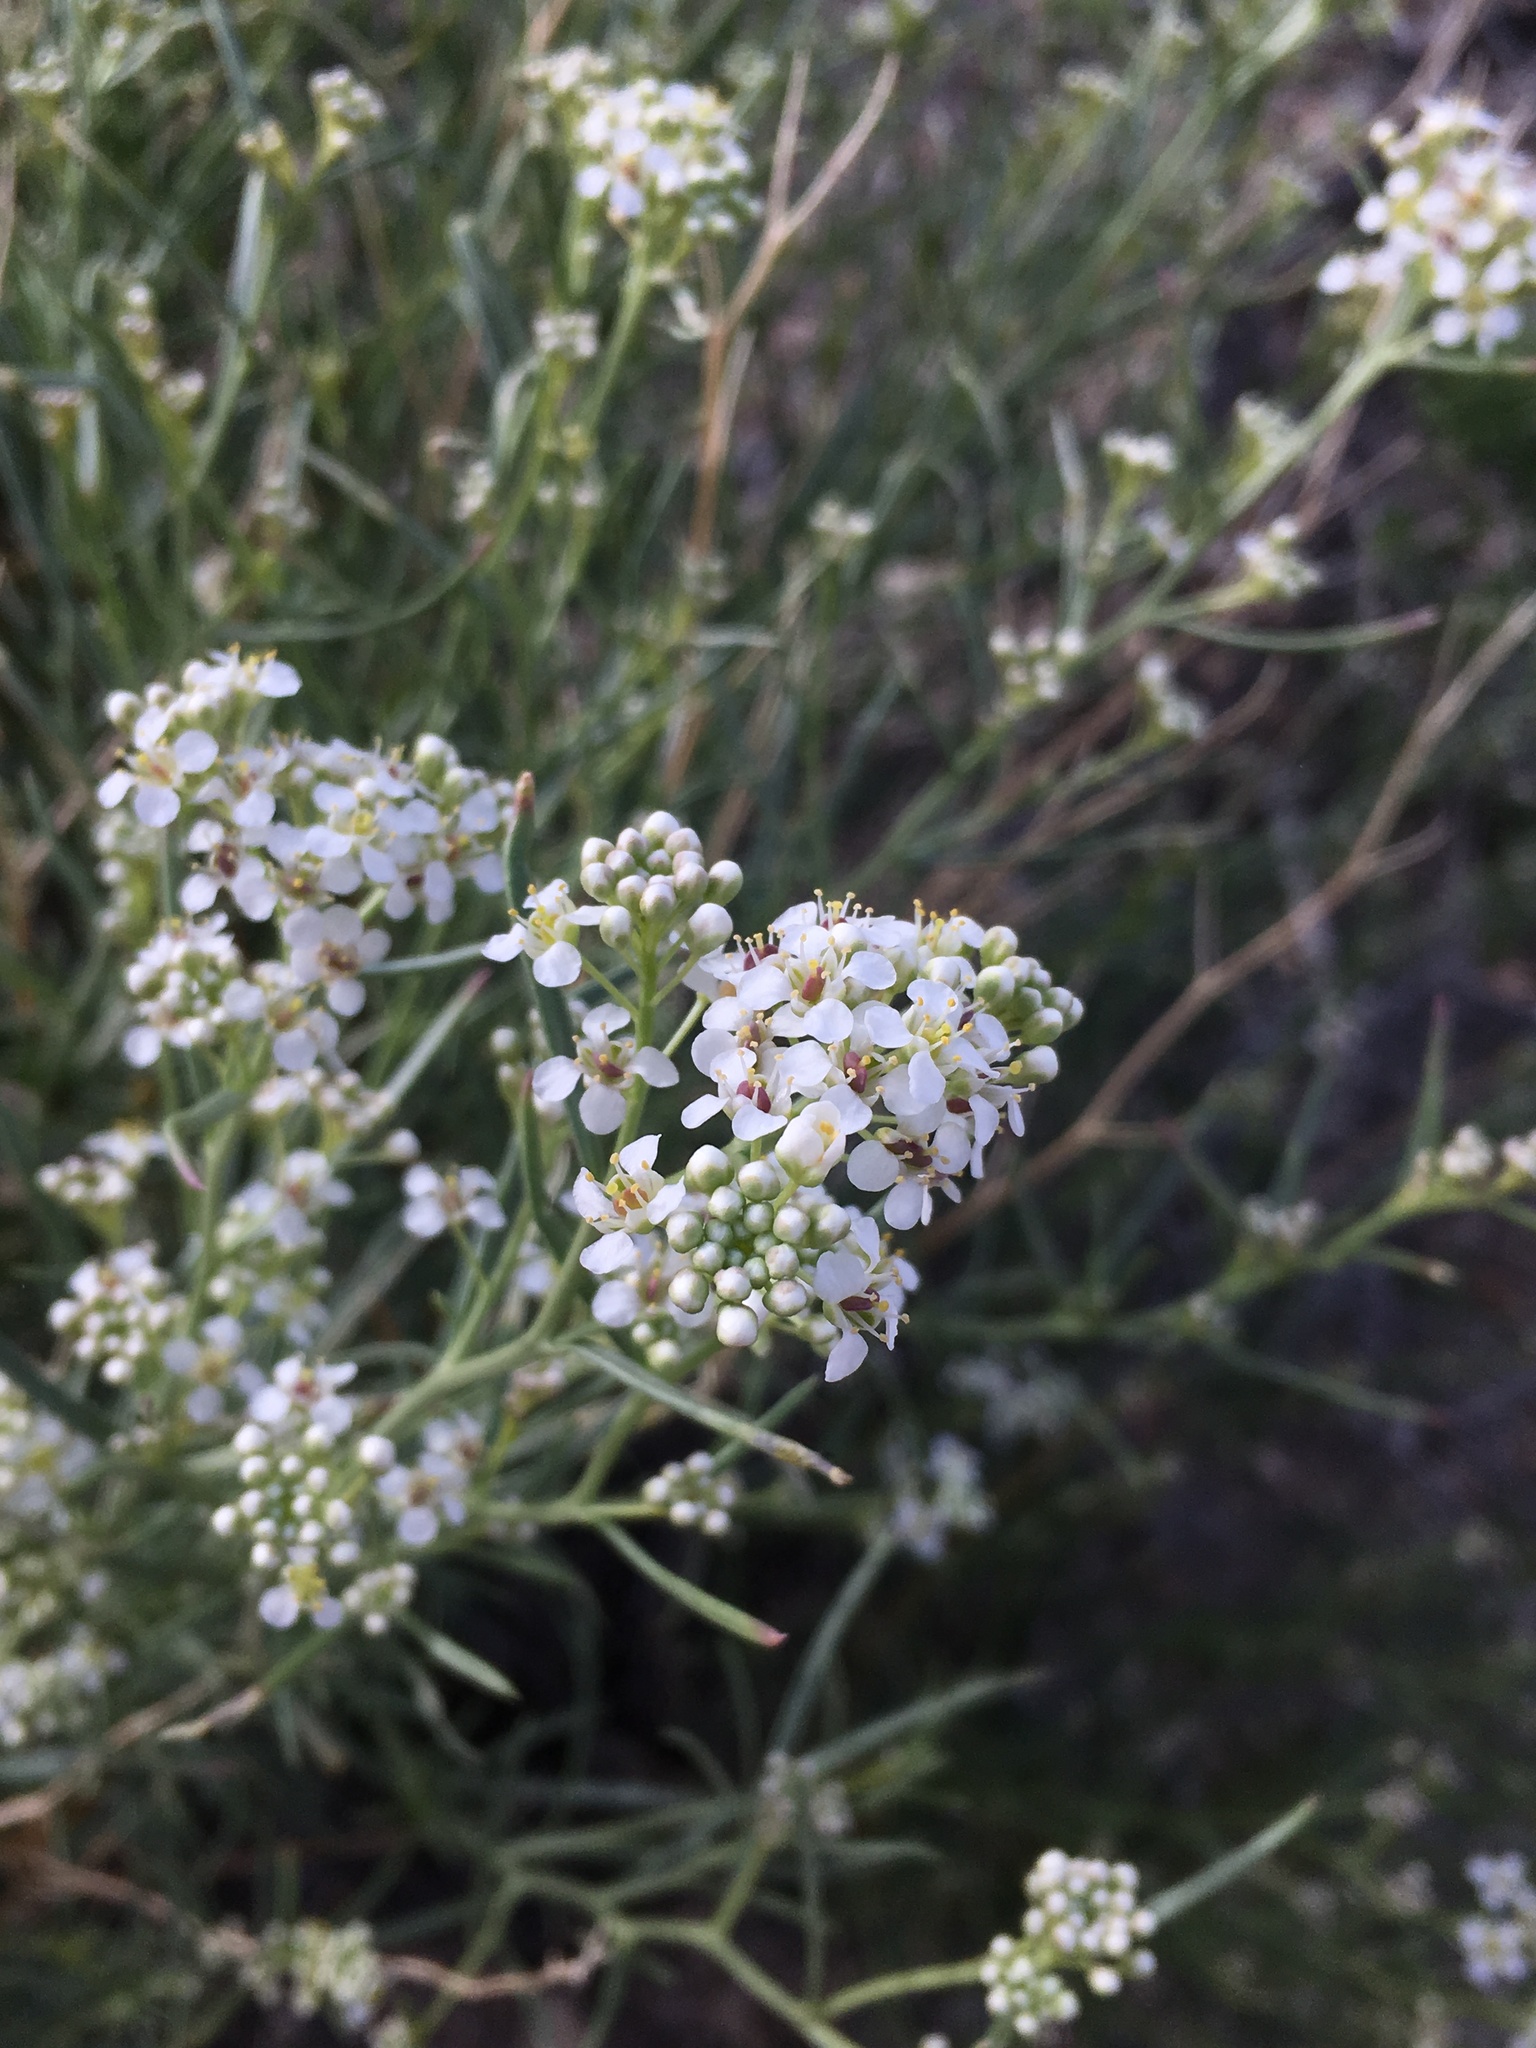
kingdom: Plantae
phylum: Tracheophyta
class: Magnoliopsida
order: Brassicales
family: Brassicaceae
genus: Lepidium
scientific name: Lepidium fremontii
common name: Fremont's pepperwort
